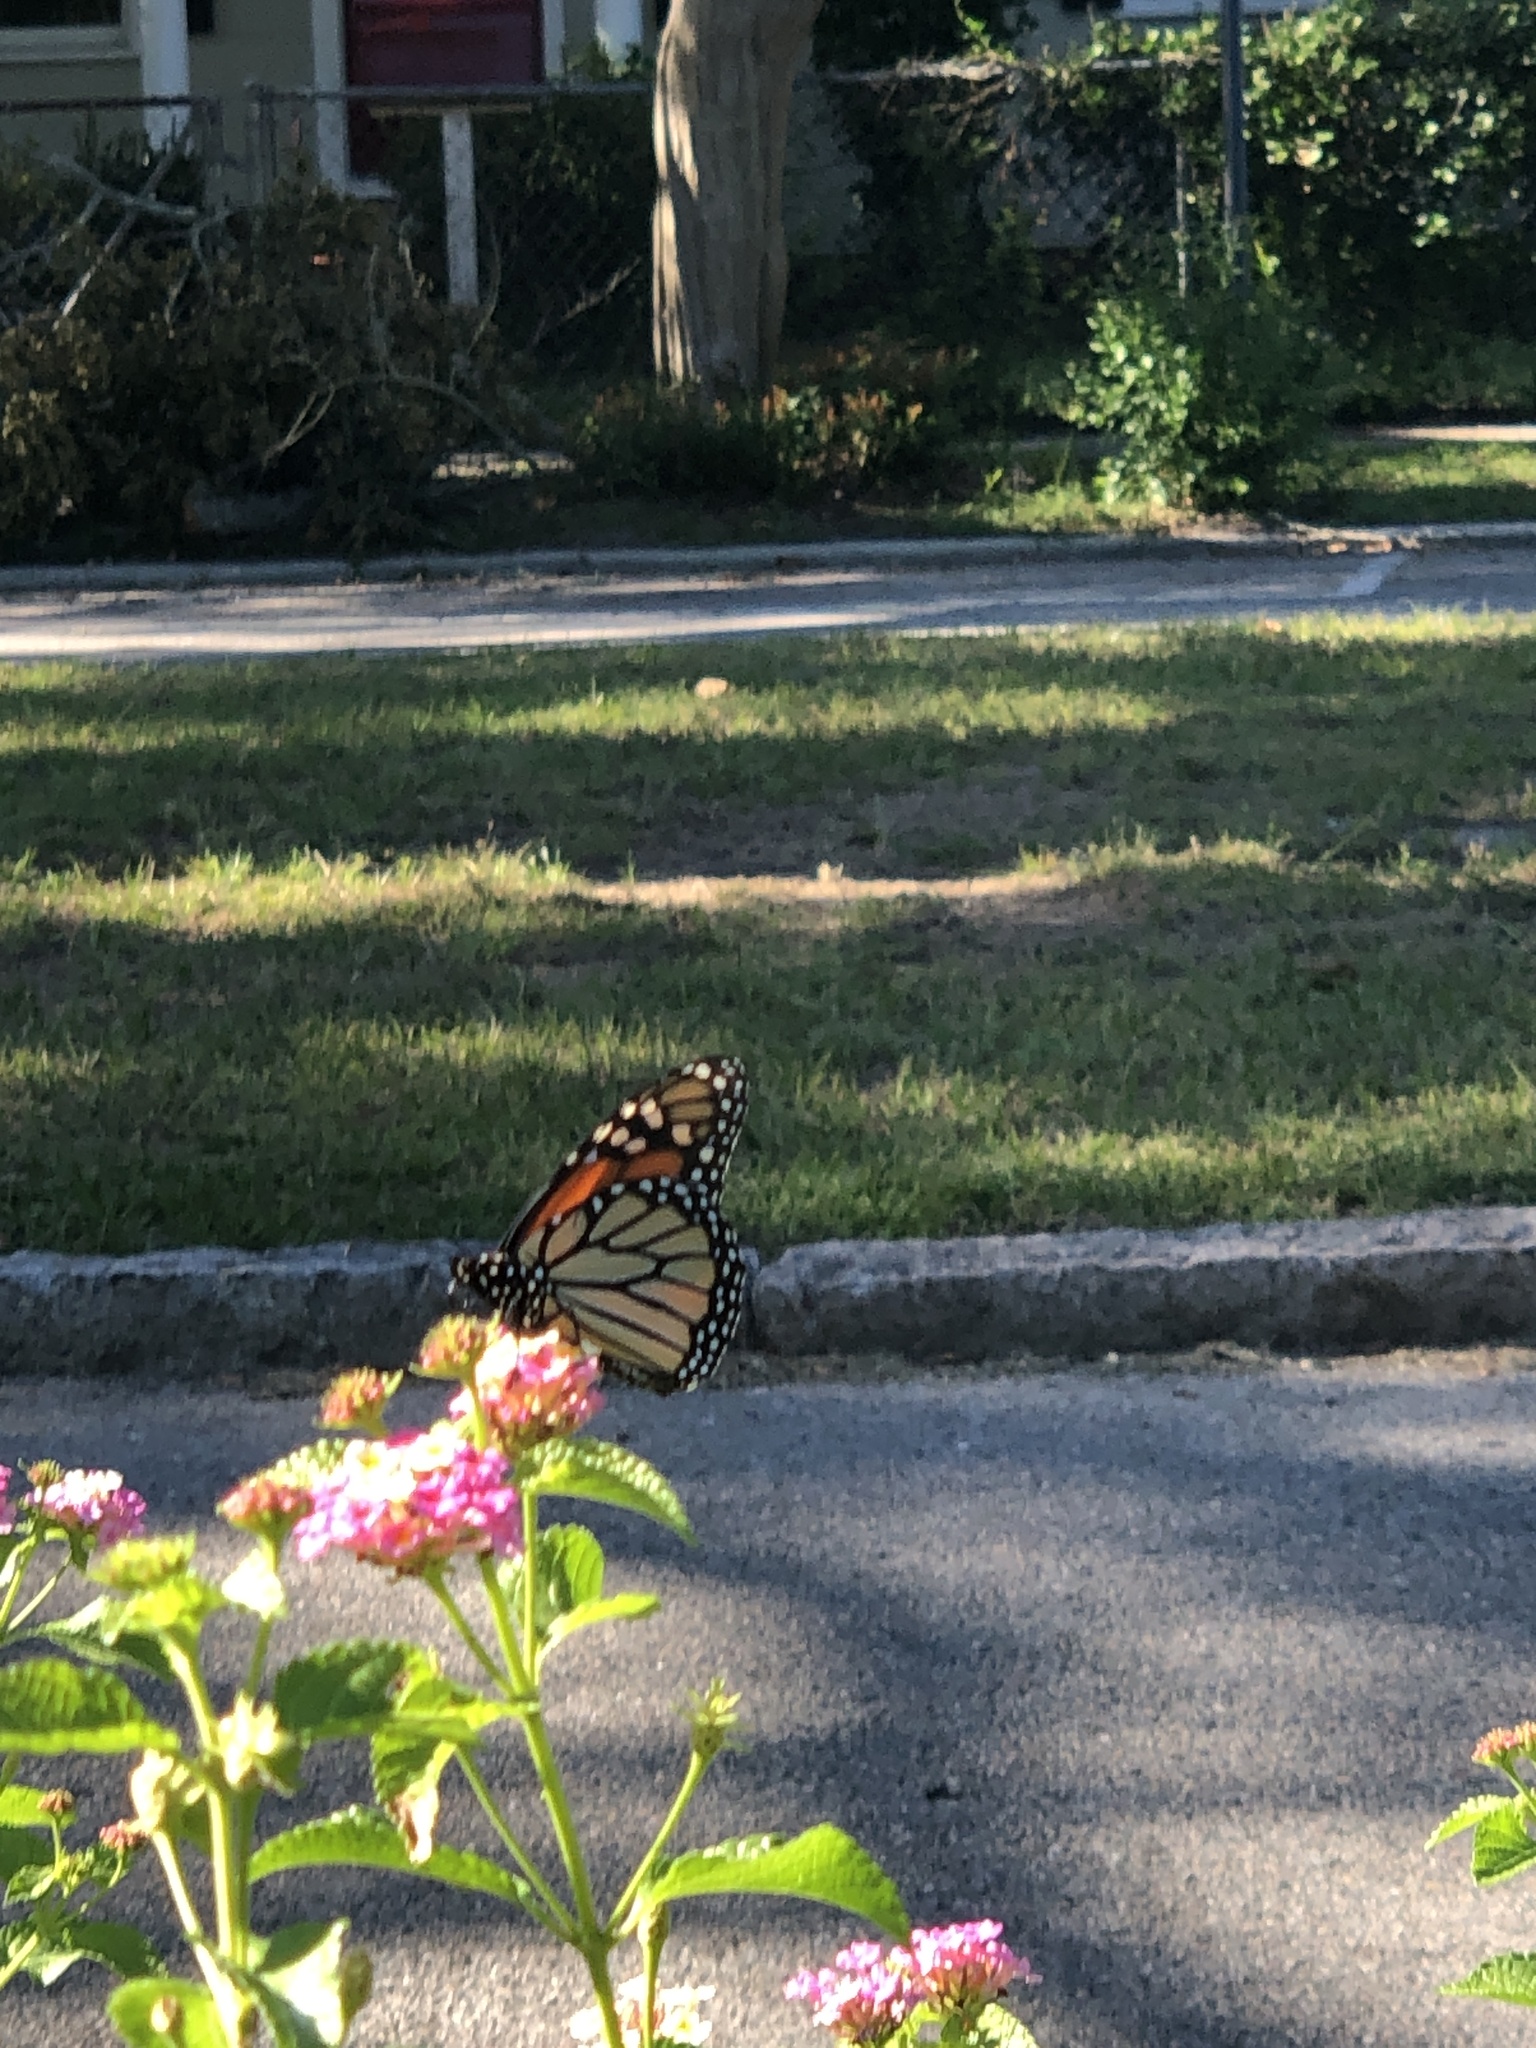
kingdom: Animalia
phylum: Arthropoda
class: Insecta
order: Lepidoptera
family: Nymphalidae
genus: Danaus
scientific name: Danaus plexippus
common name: Monarch
